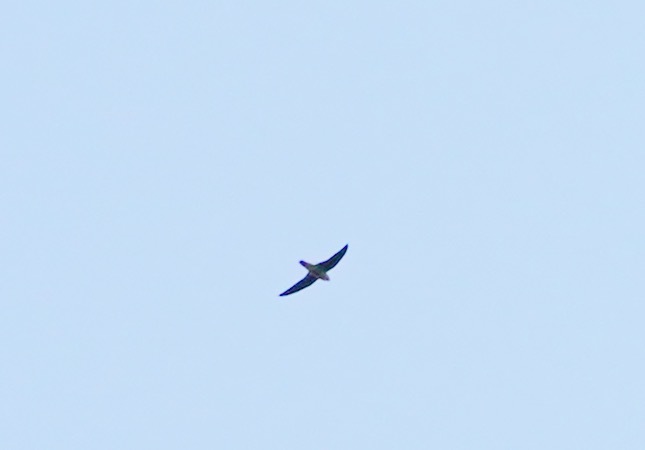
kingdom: Animalia
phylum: Chordata
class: Aves
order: Apodiformes
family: Apodidae
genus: Cypseloides
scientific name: Cypseloides niger
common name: Black swift
